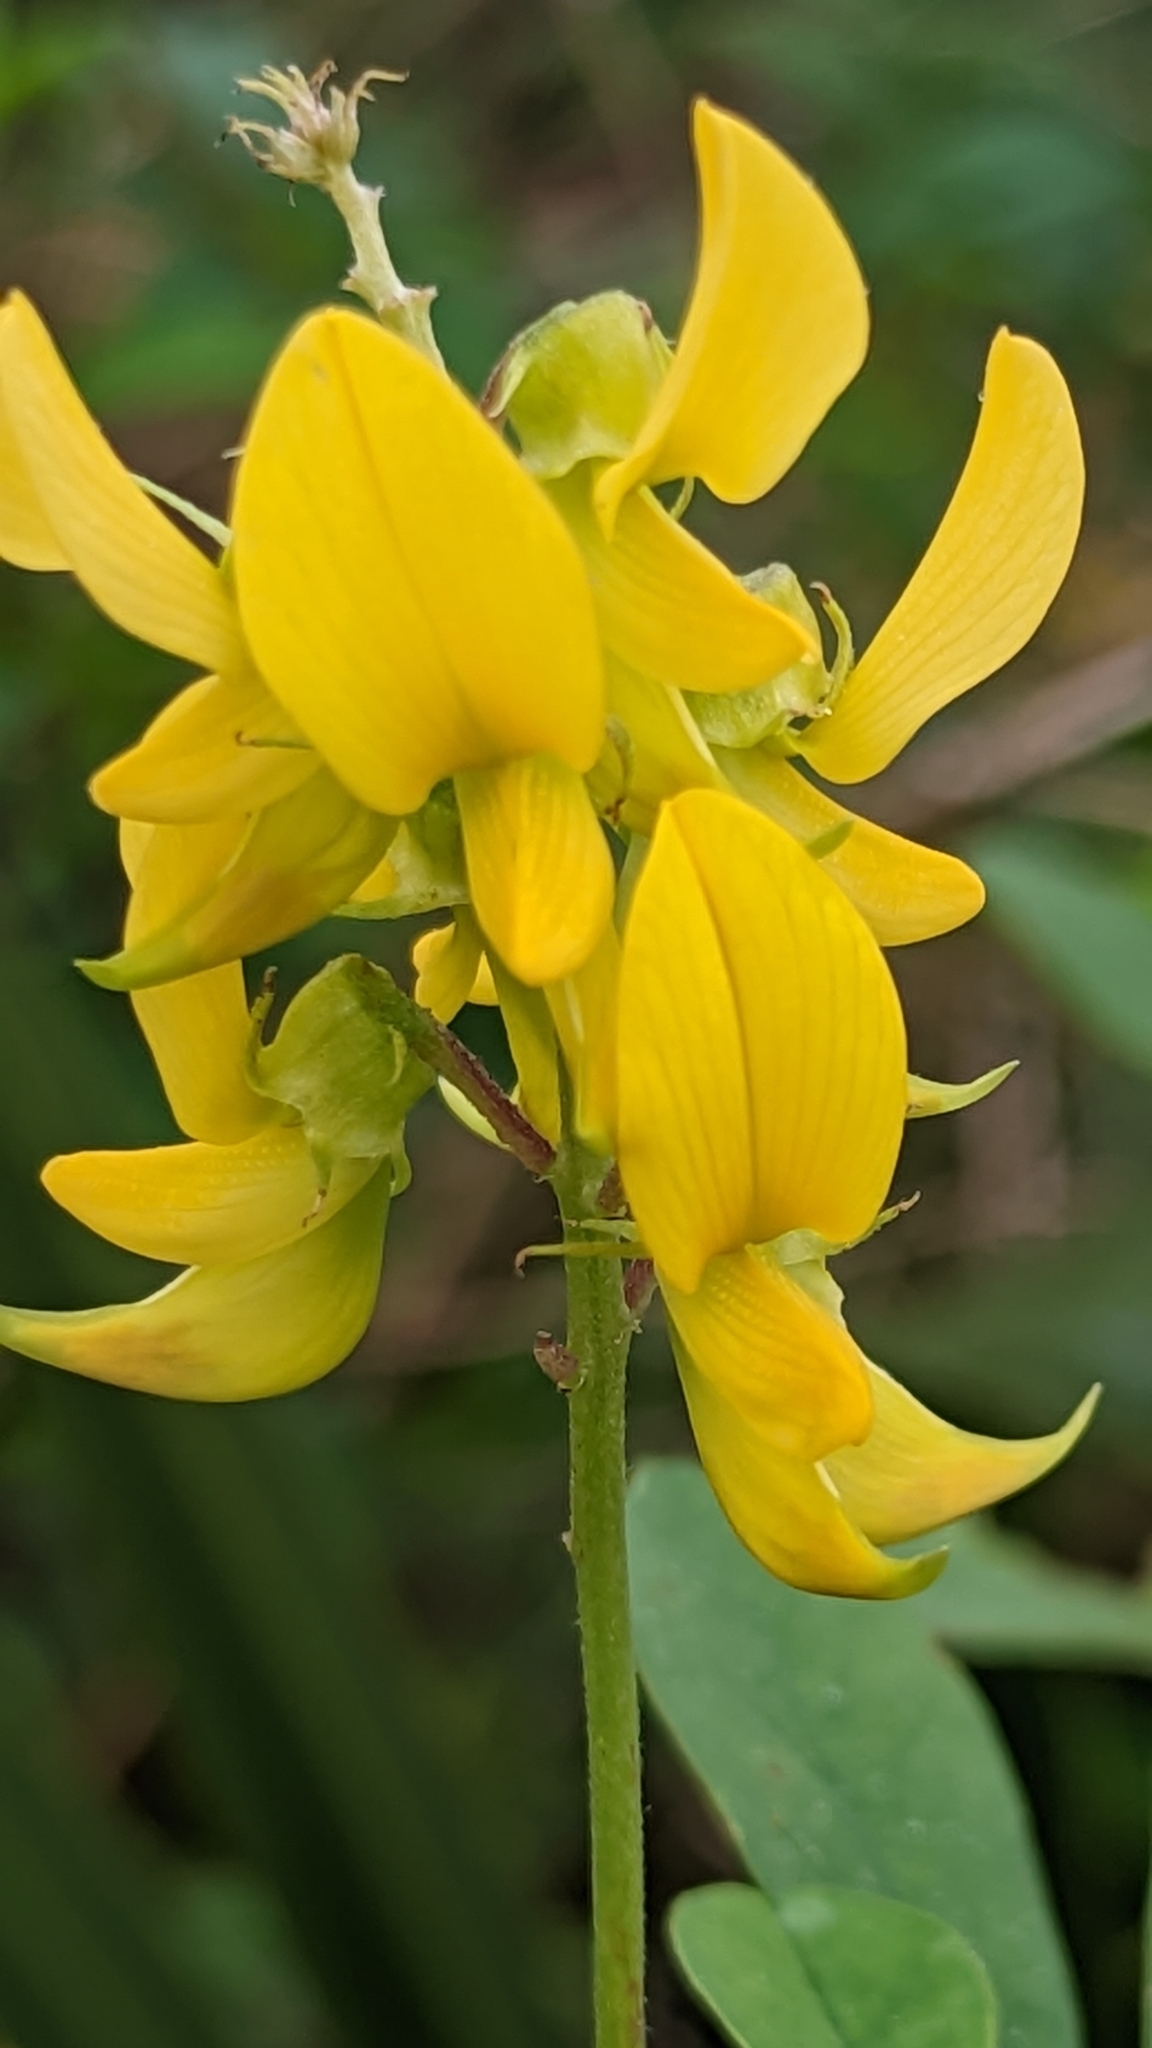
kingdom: Plantae
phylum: Tracheophyta
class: Magnoliopsida
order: Fabales
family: Fabaceae
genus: Crotalaria
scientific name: Crotalaria pallida
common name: Smooth rattlebox
